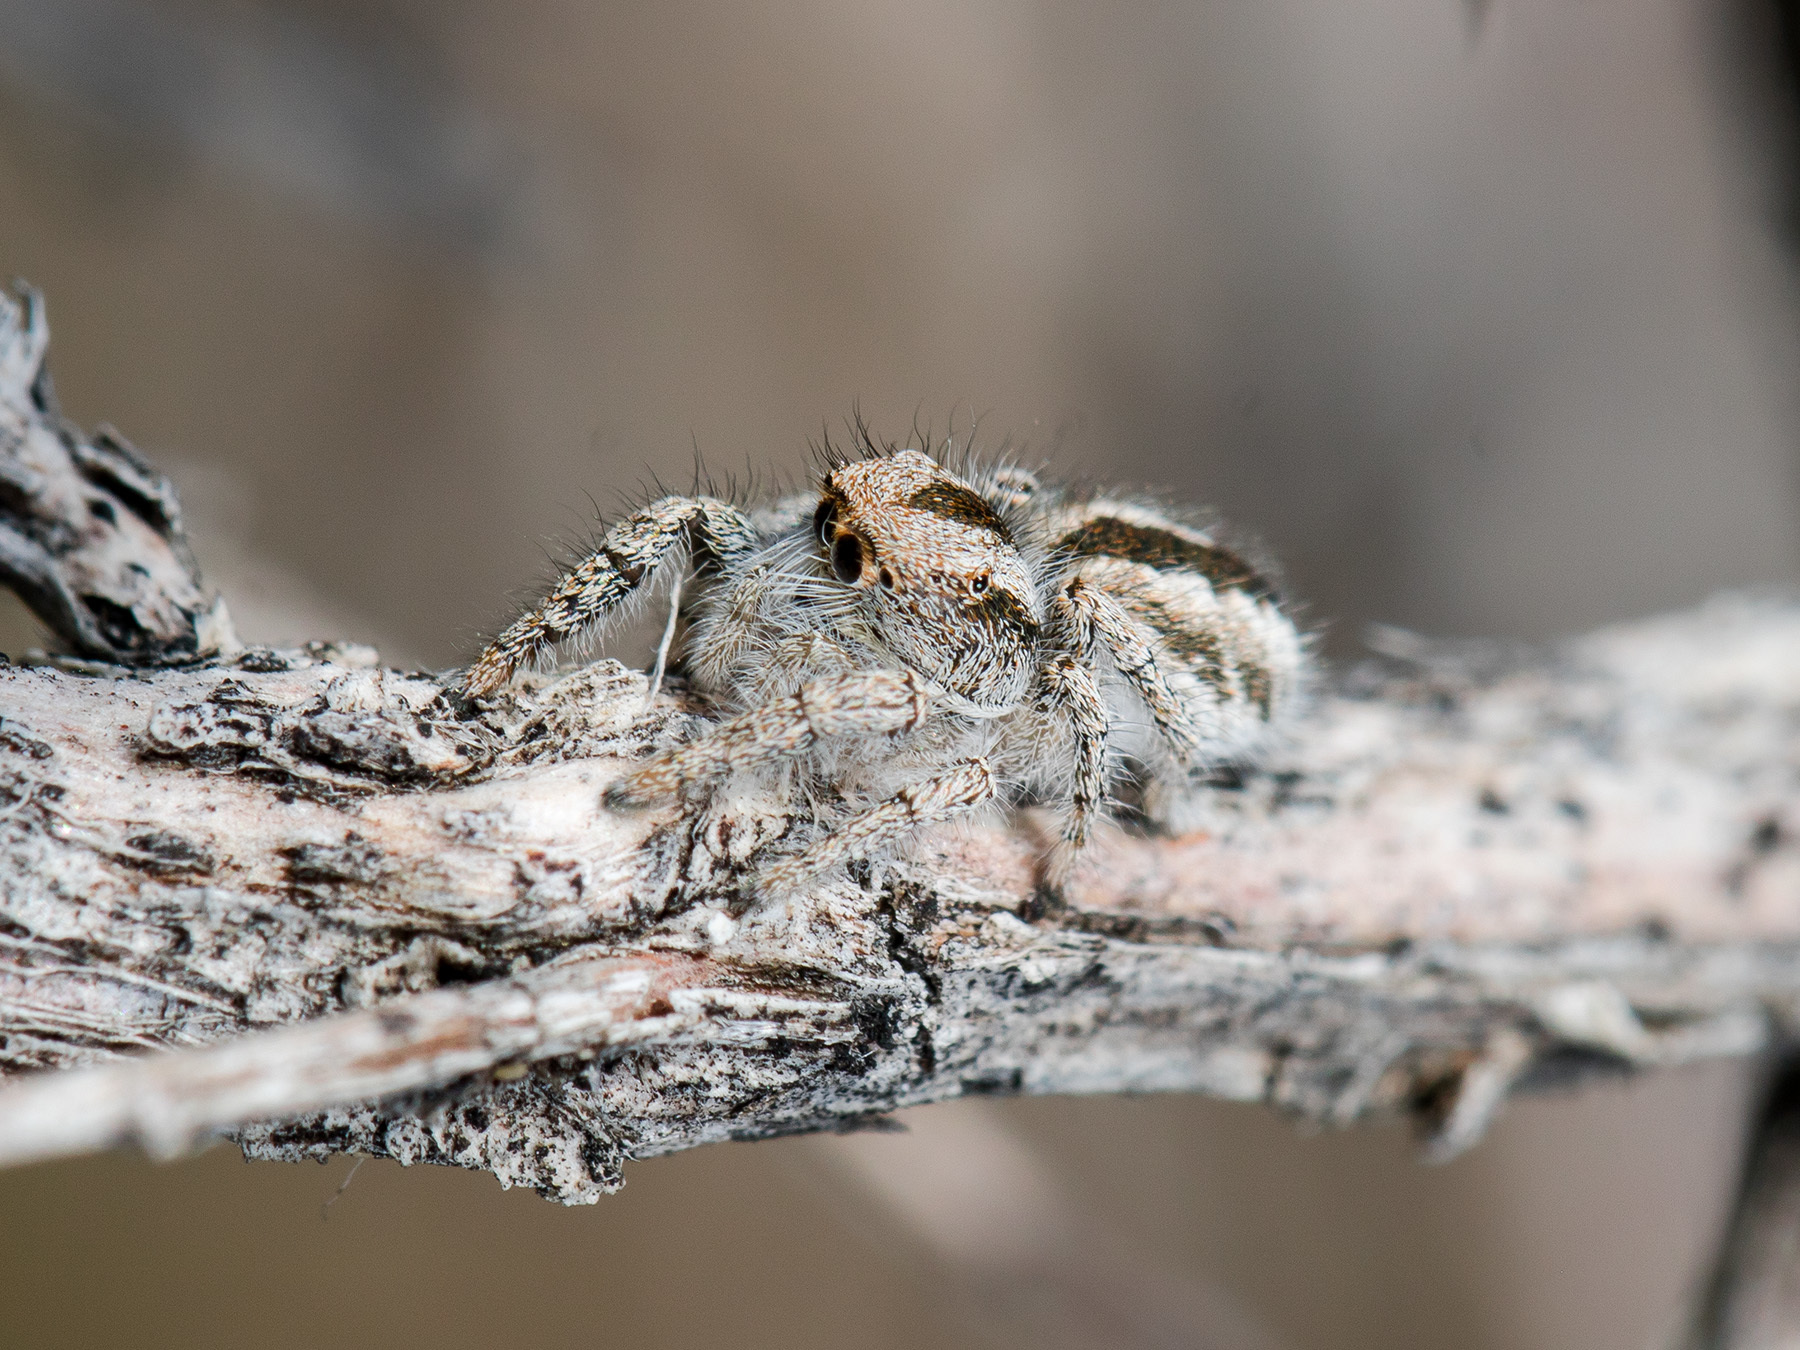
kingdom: Animalia
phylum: Arthropoda
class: Arachnida
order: Araneae
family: Salticidae
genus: Pseudomogrus
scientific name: Pseudomogrus vittatus
